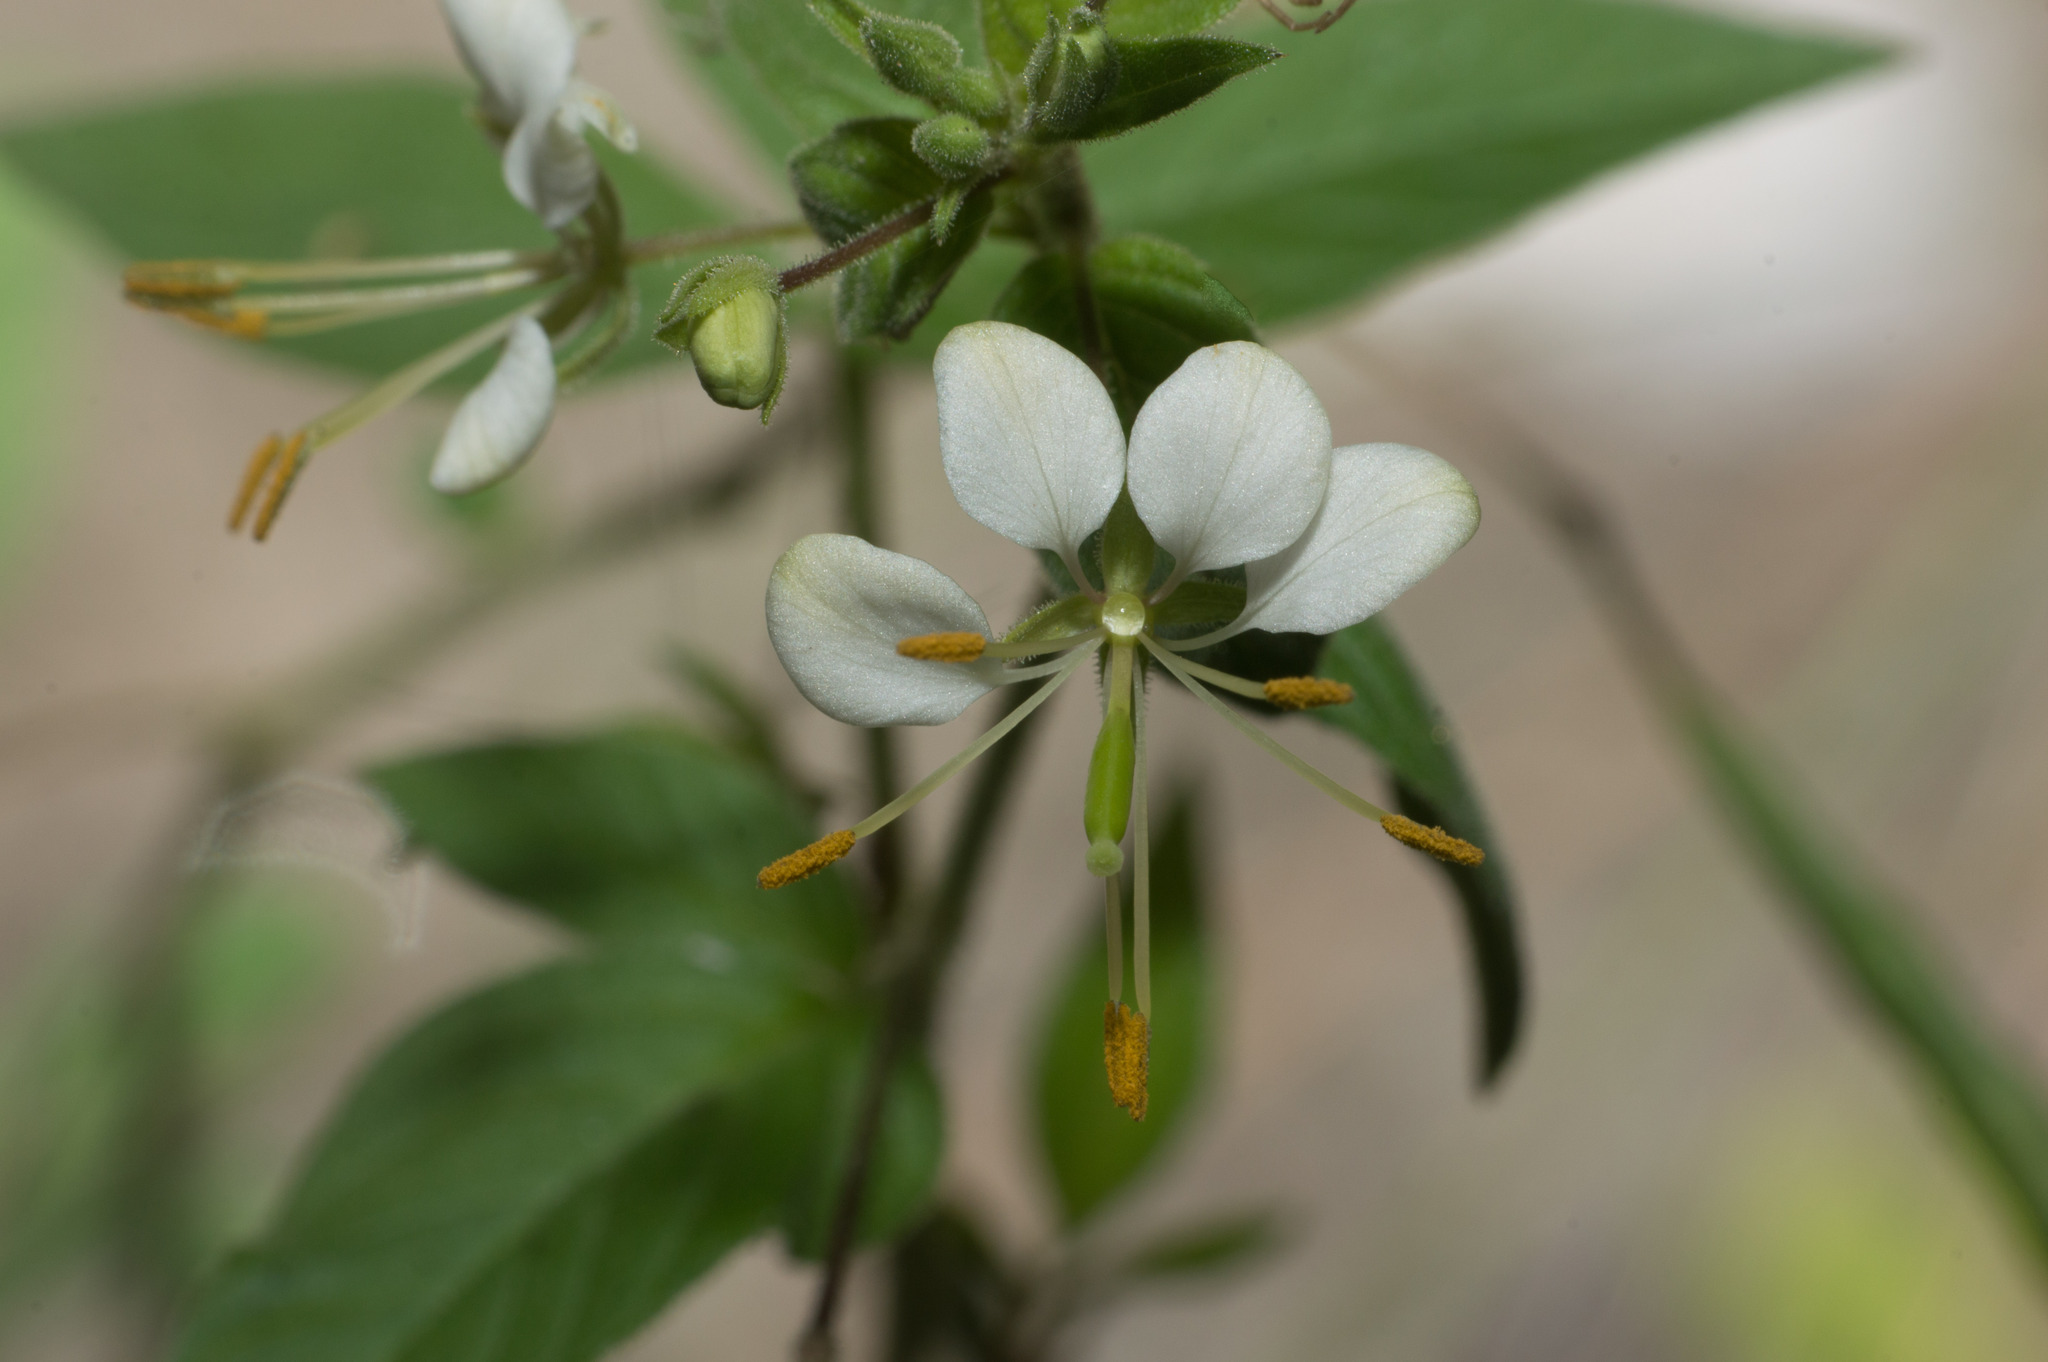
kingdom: Plantae
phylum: Tracheophyta
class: Magnoliopsida
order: Brassicales
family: Cleomaceae
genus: Tarenaya
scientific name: Tarenaya cordobensis
